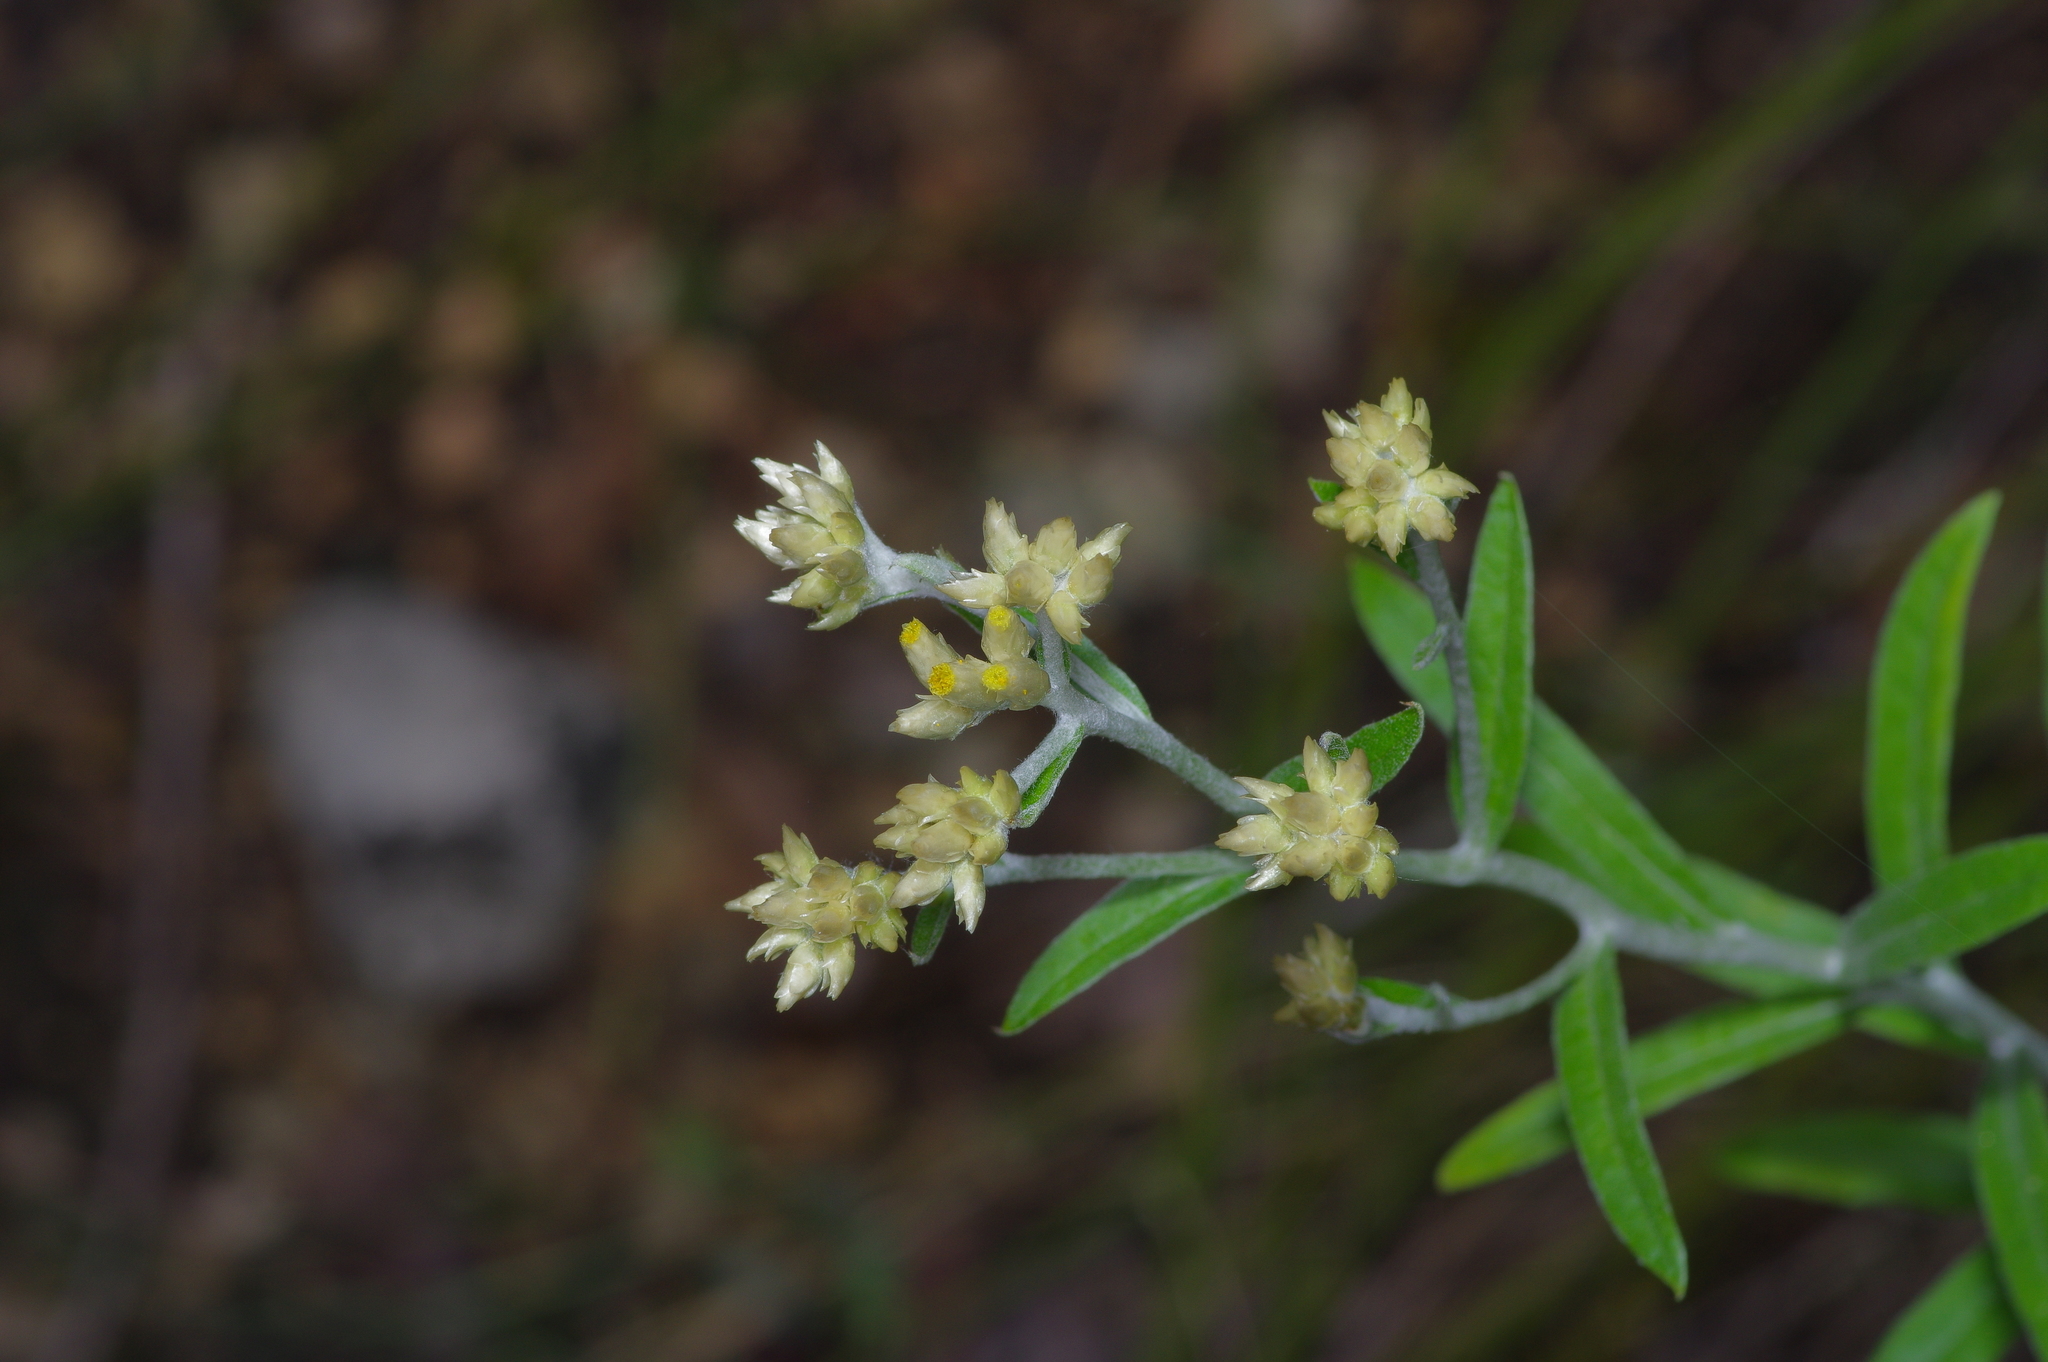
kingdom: Plantae
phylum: Tracheophyta
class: Magnoliopsida
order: Asterales
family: Asteraceae
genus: Pseudognaphalium
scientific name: Pseudognaphalium obtusifolium
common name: Eastern rabbit-tobacco
